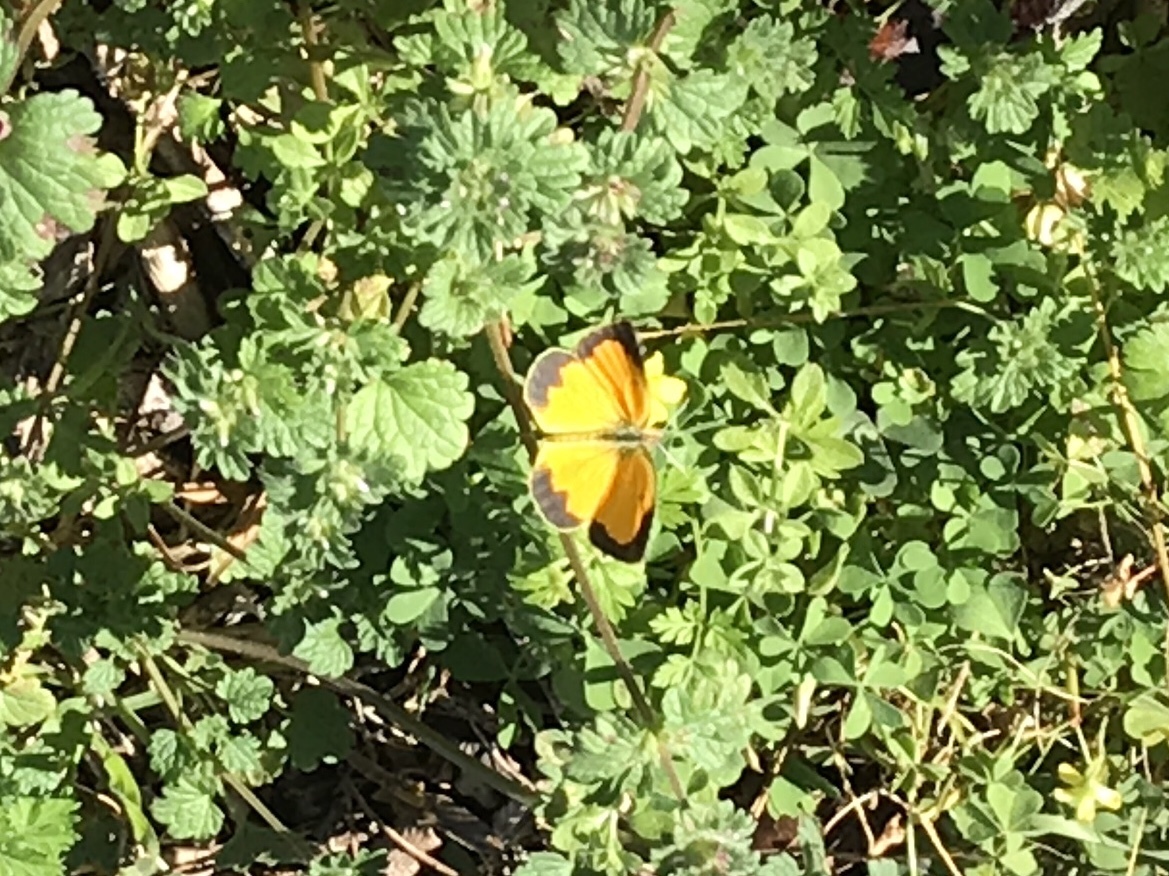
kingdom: Animalia
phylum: Arthropoda
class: Insecta
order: Lepidoptera
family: Pieridae
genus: Abaeis
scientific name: Abaeis nicippe
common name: Sleepy orange
